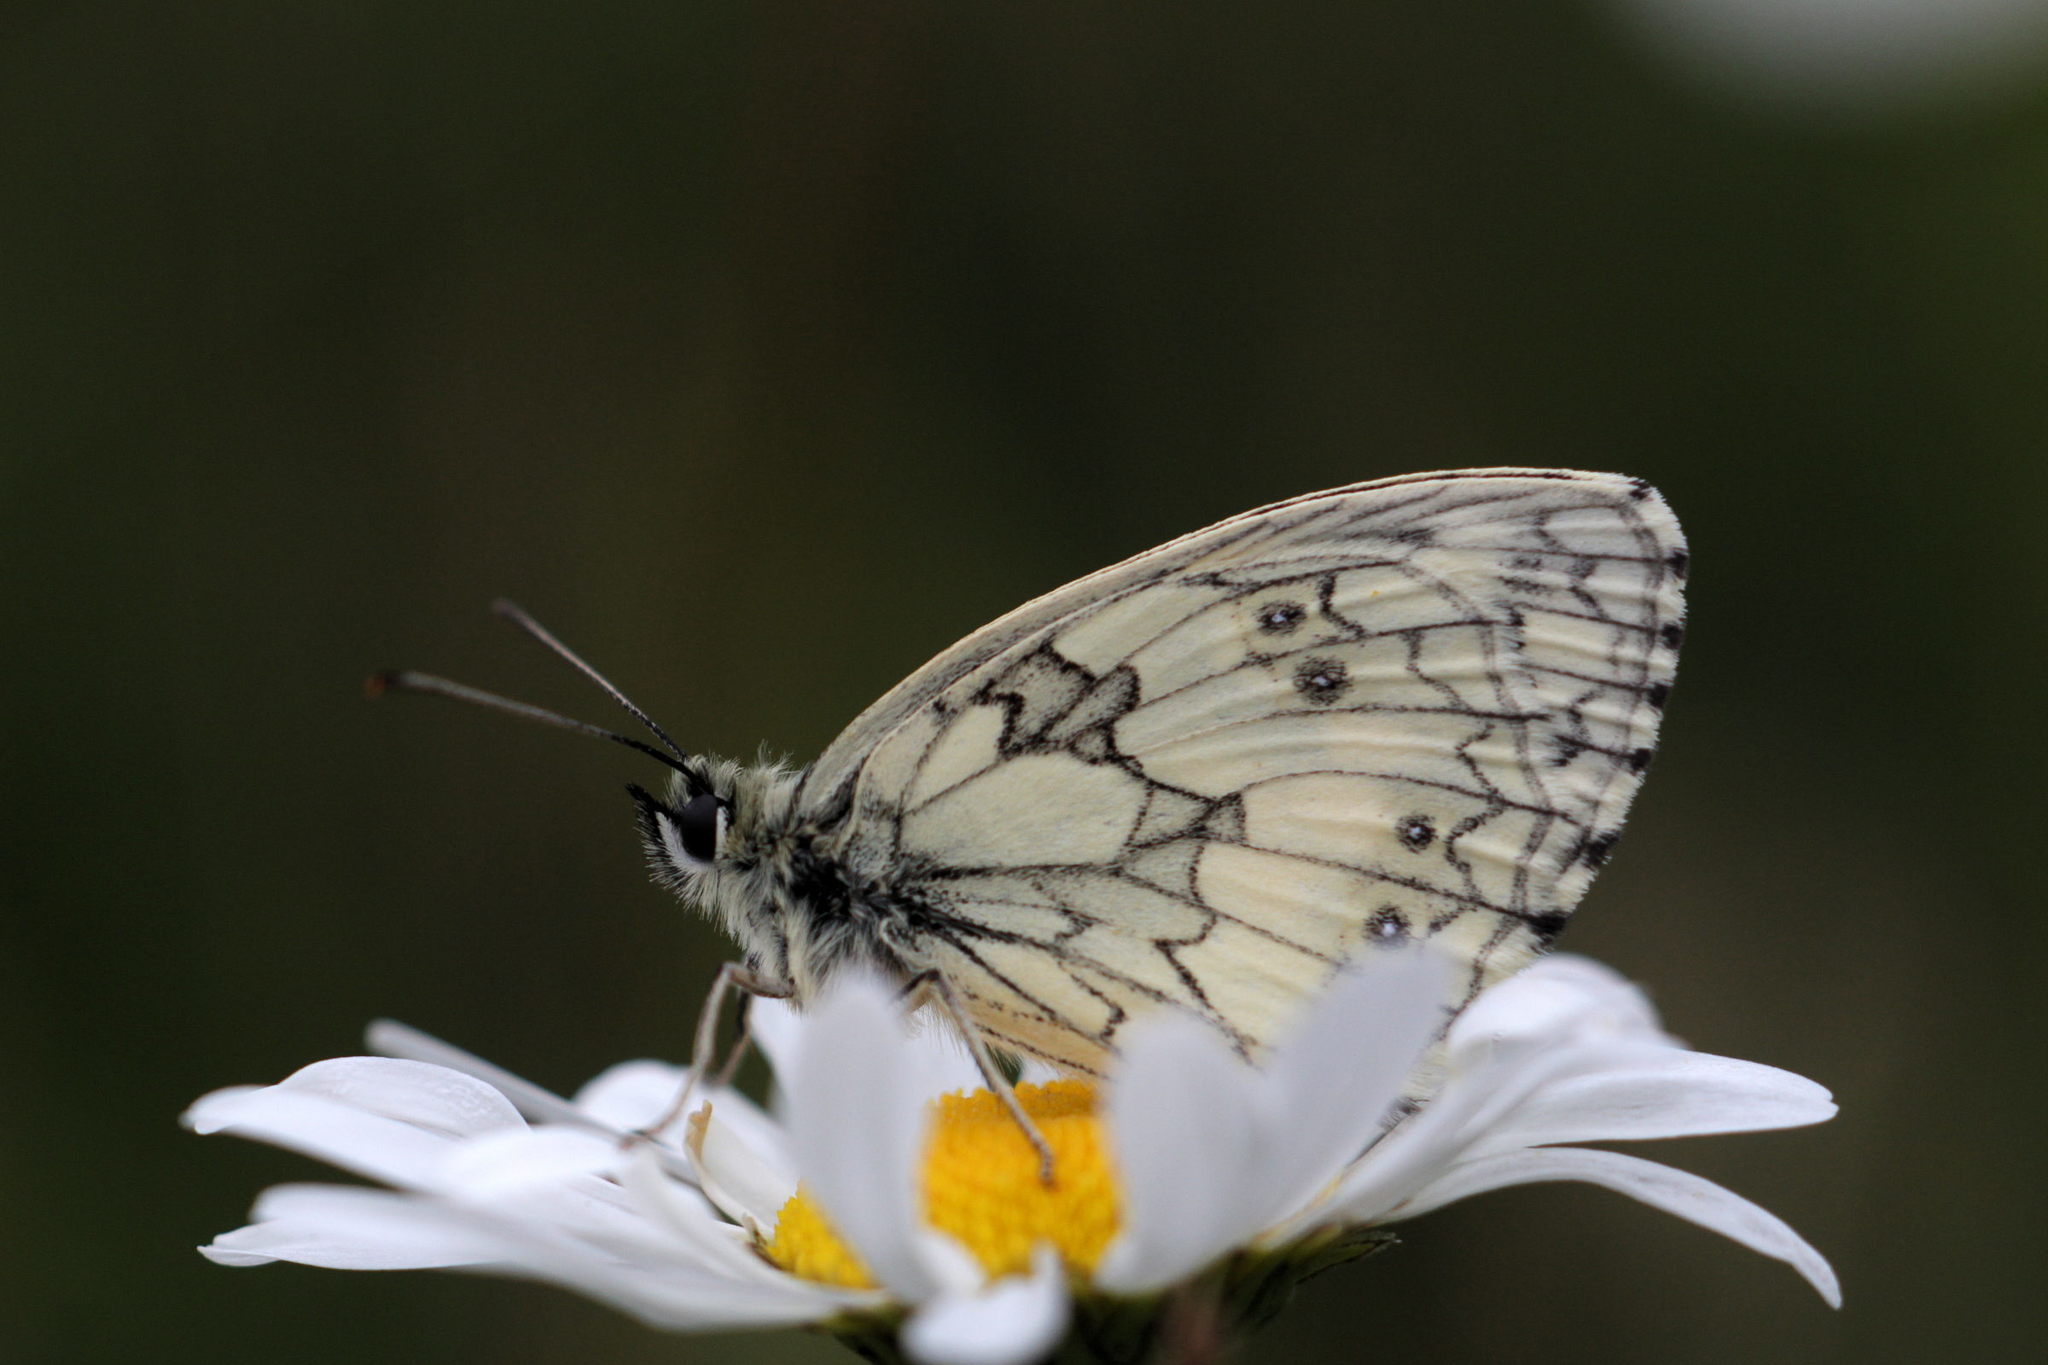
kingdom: Animalia
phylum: Arthropoda
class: Insecta
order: Lepidoptera
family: Nymphalidae
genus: Melanargia
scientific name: Melanargia galathea
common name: Marbled white
